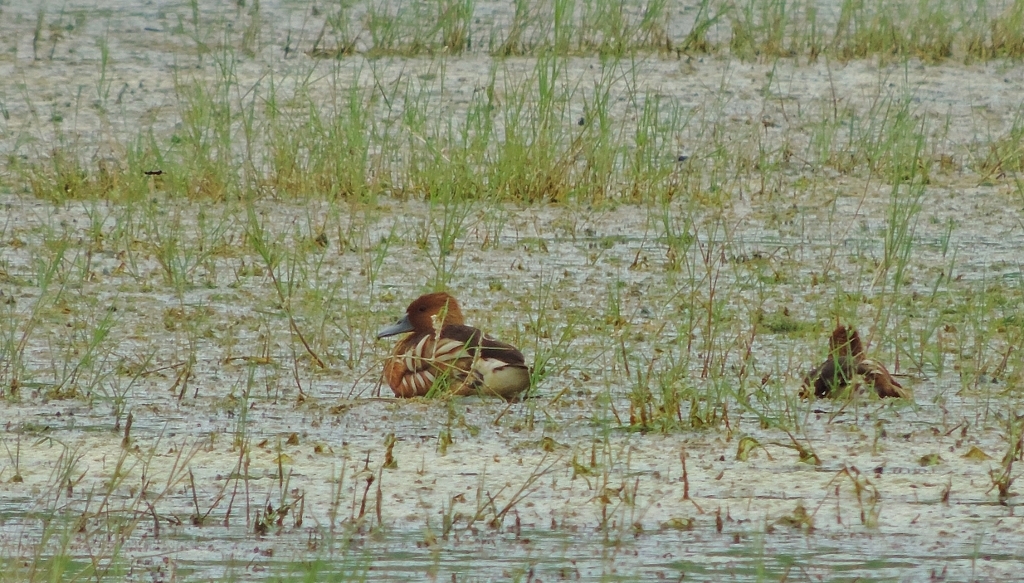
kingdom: Animalia
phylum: Chordata
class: Aves
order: Anseriformes
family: Anatidae
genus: Dendrocygna
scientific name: Dendrocygna bicolor
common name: Fulvous whistling duck
